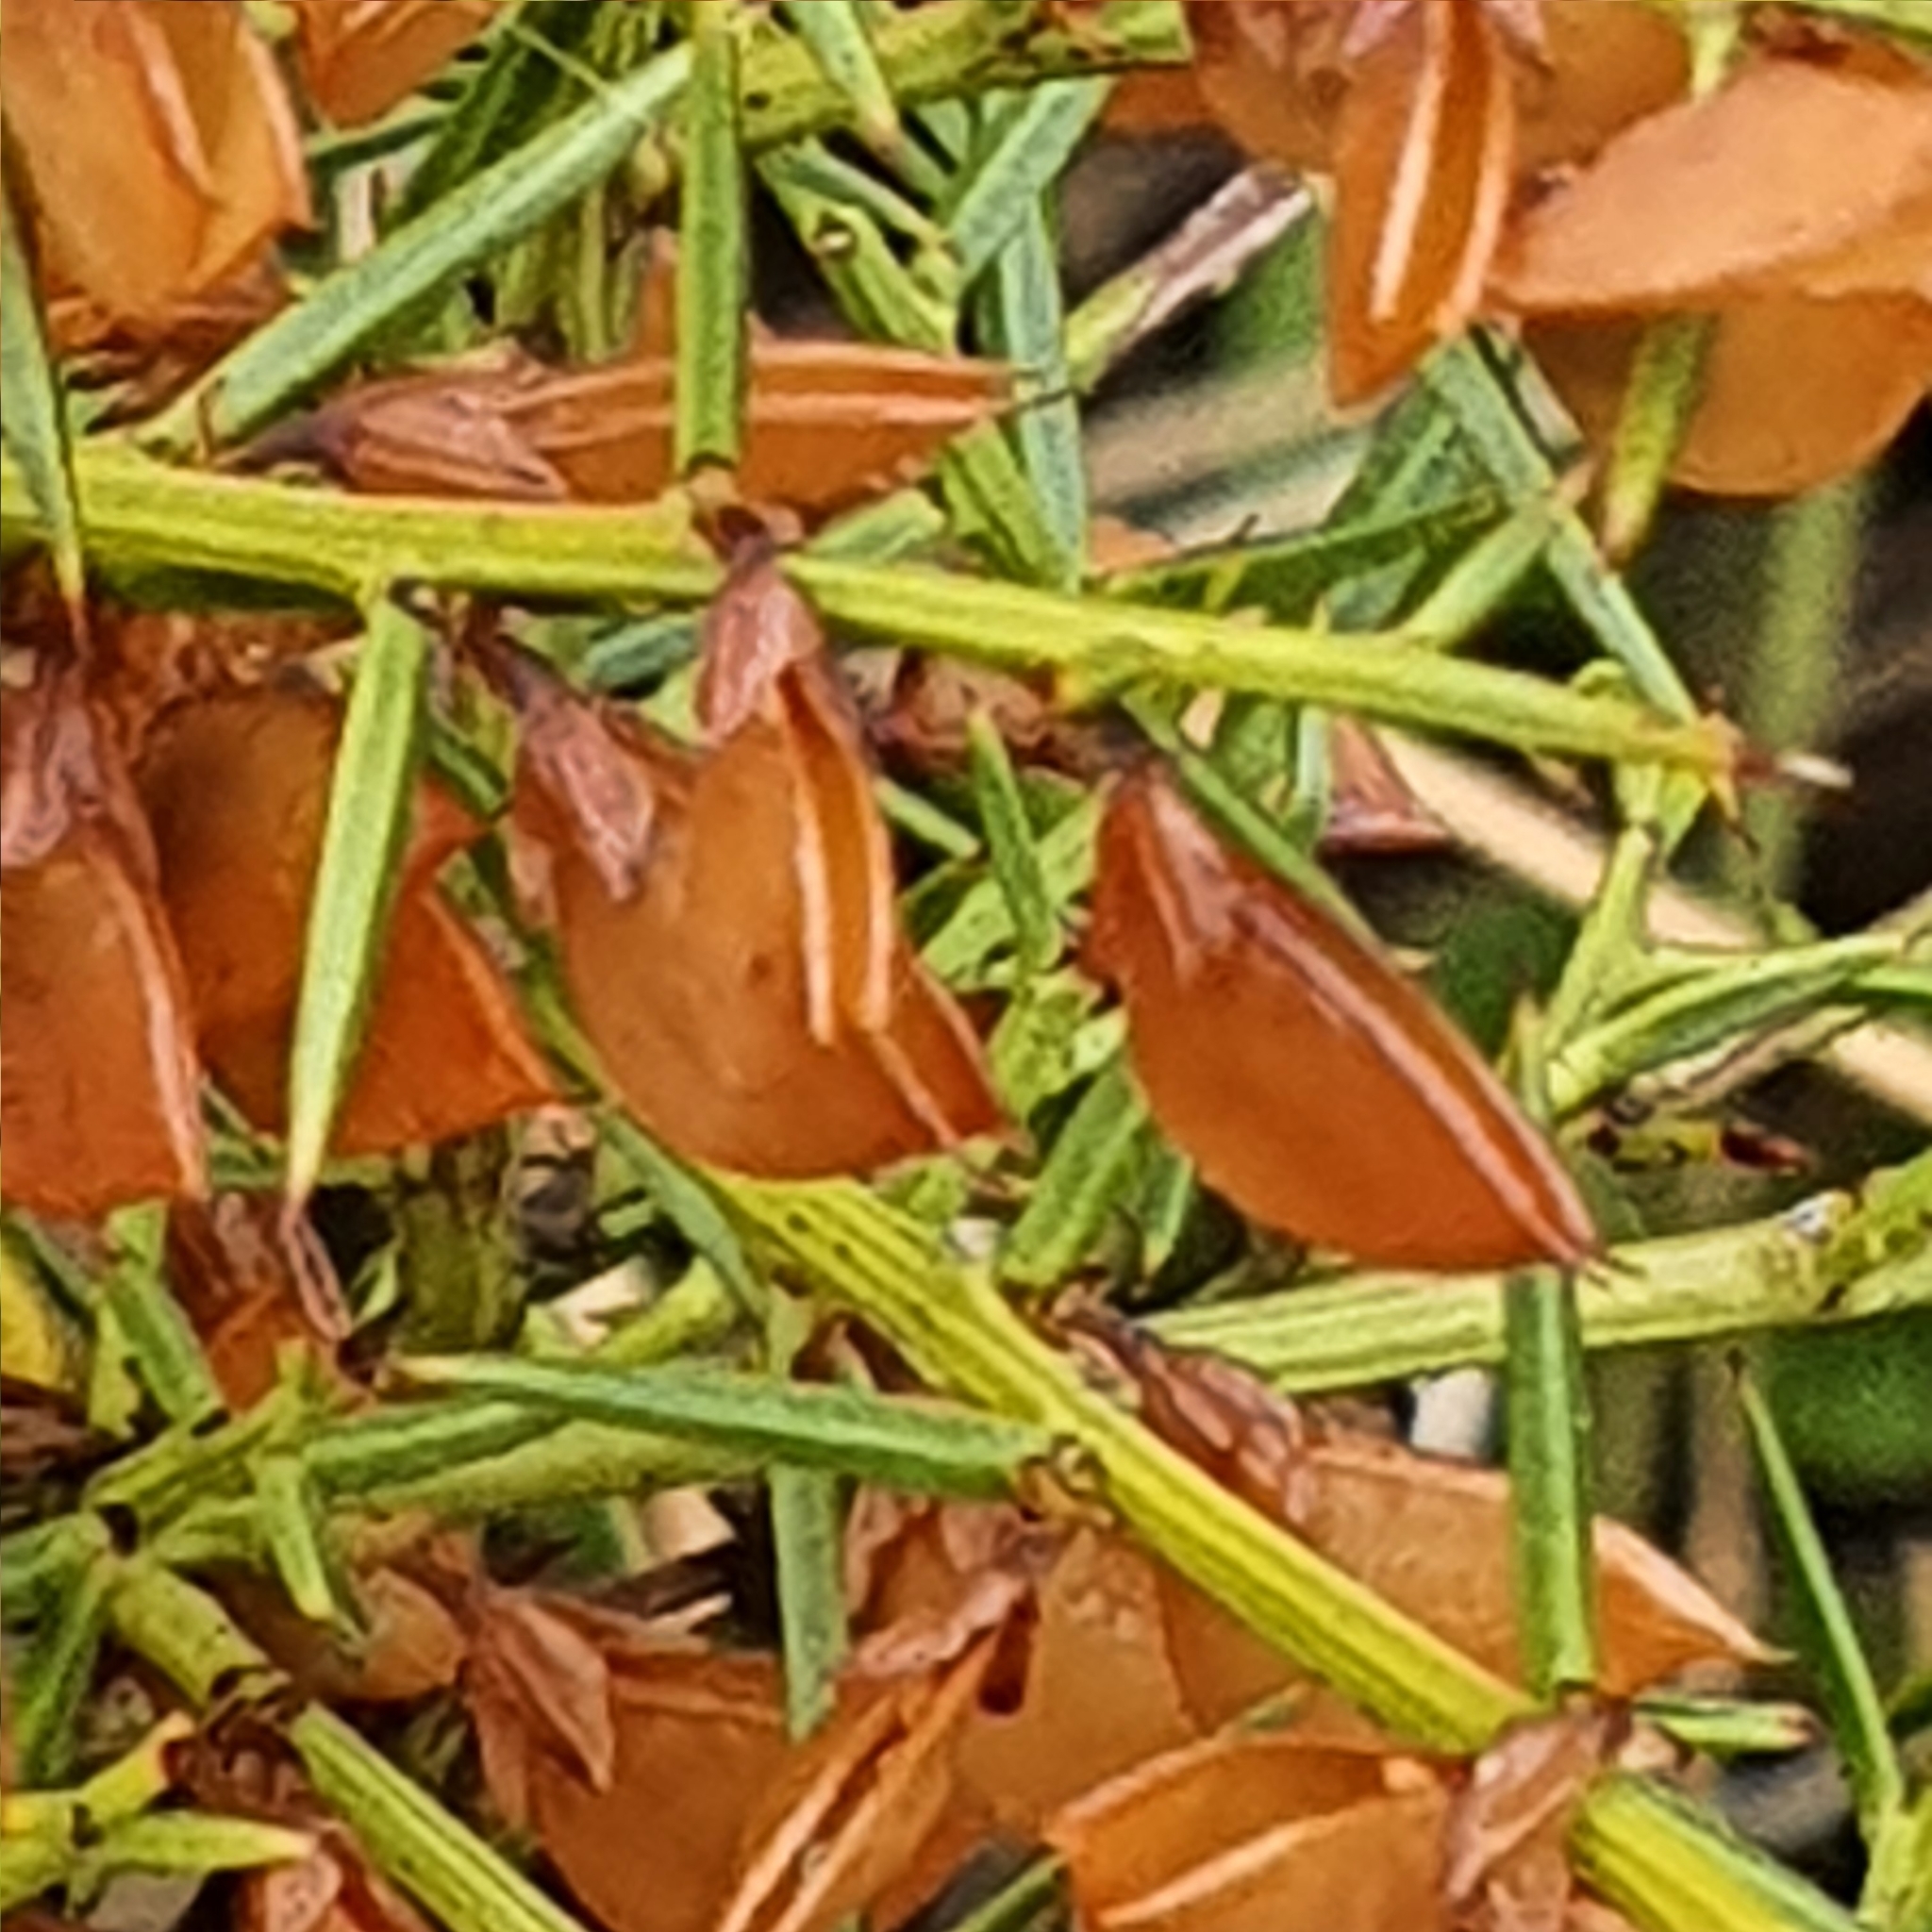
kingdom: Plantae
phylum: Tracheophyta
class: Magnoliopsida
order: Fabales
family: Fabaceae
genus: Daviesia
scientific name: Daviesia ulicifolia
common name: Gorse bitter-pea
